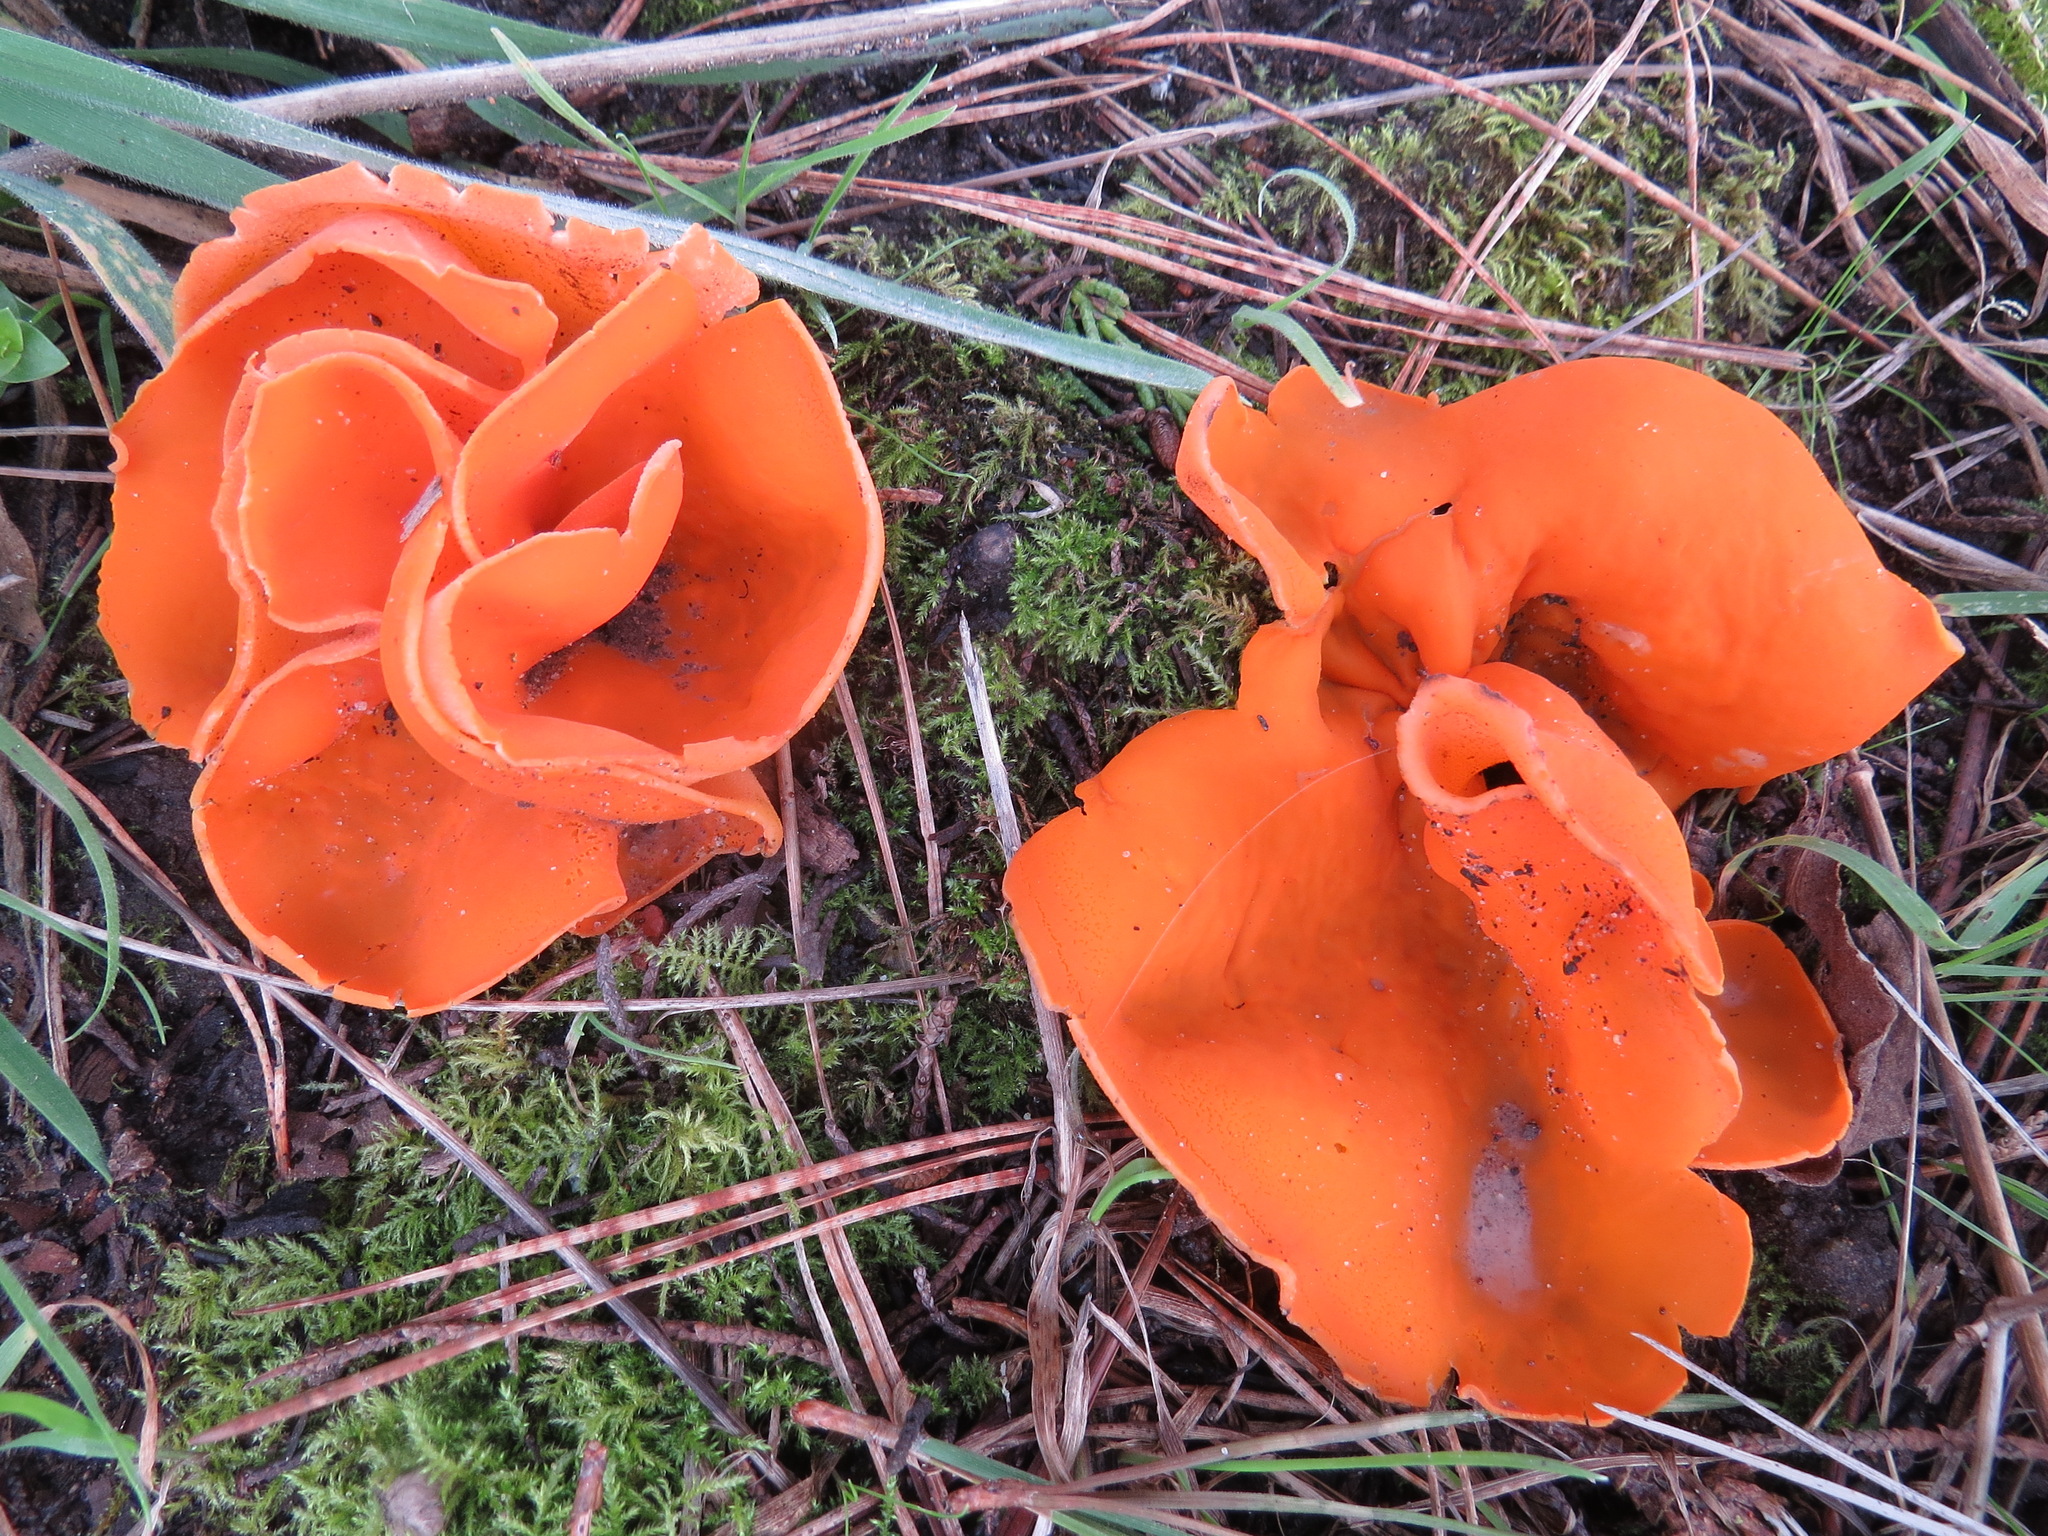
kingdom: Fungi
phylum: Ascomycota
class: Pezizomycetes
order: Pezizales
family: Pyronemataceae
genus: Aleuria
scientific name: Aleuria aurantia
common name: Orange peel fungus
